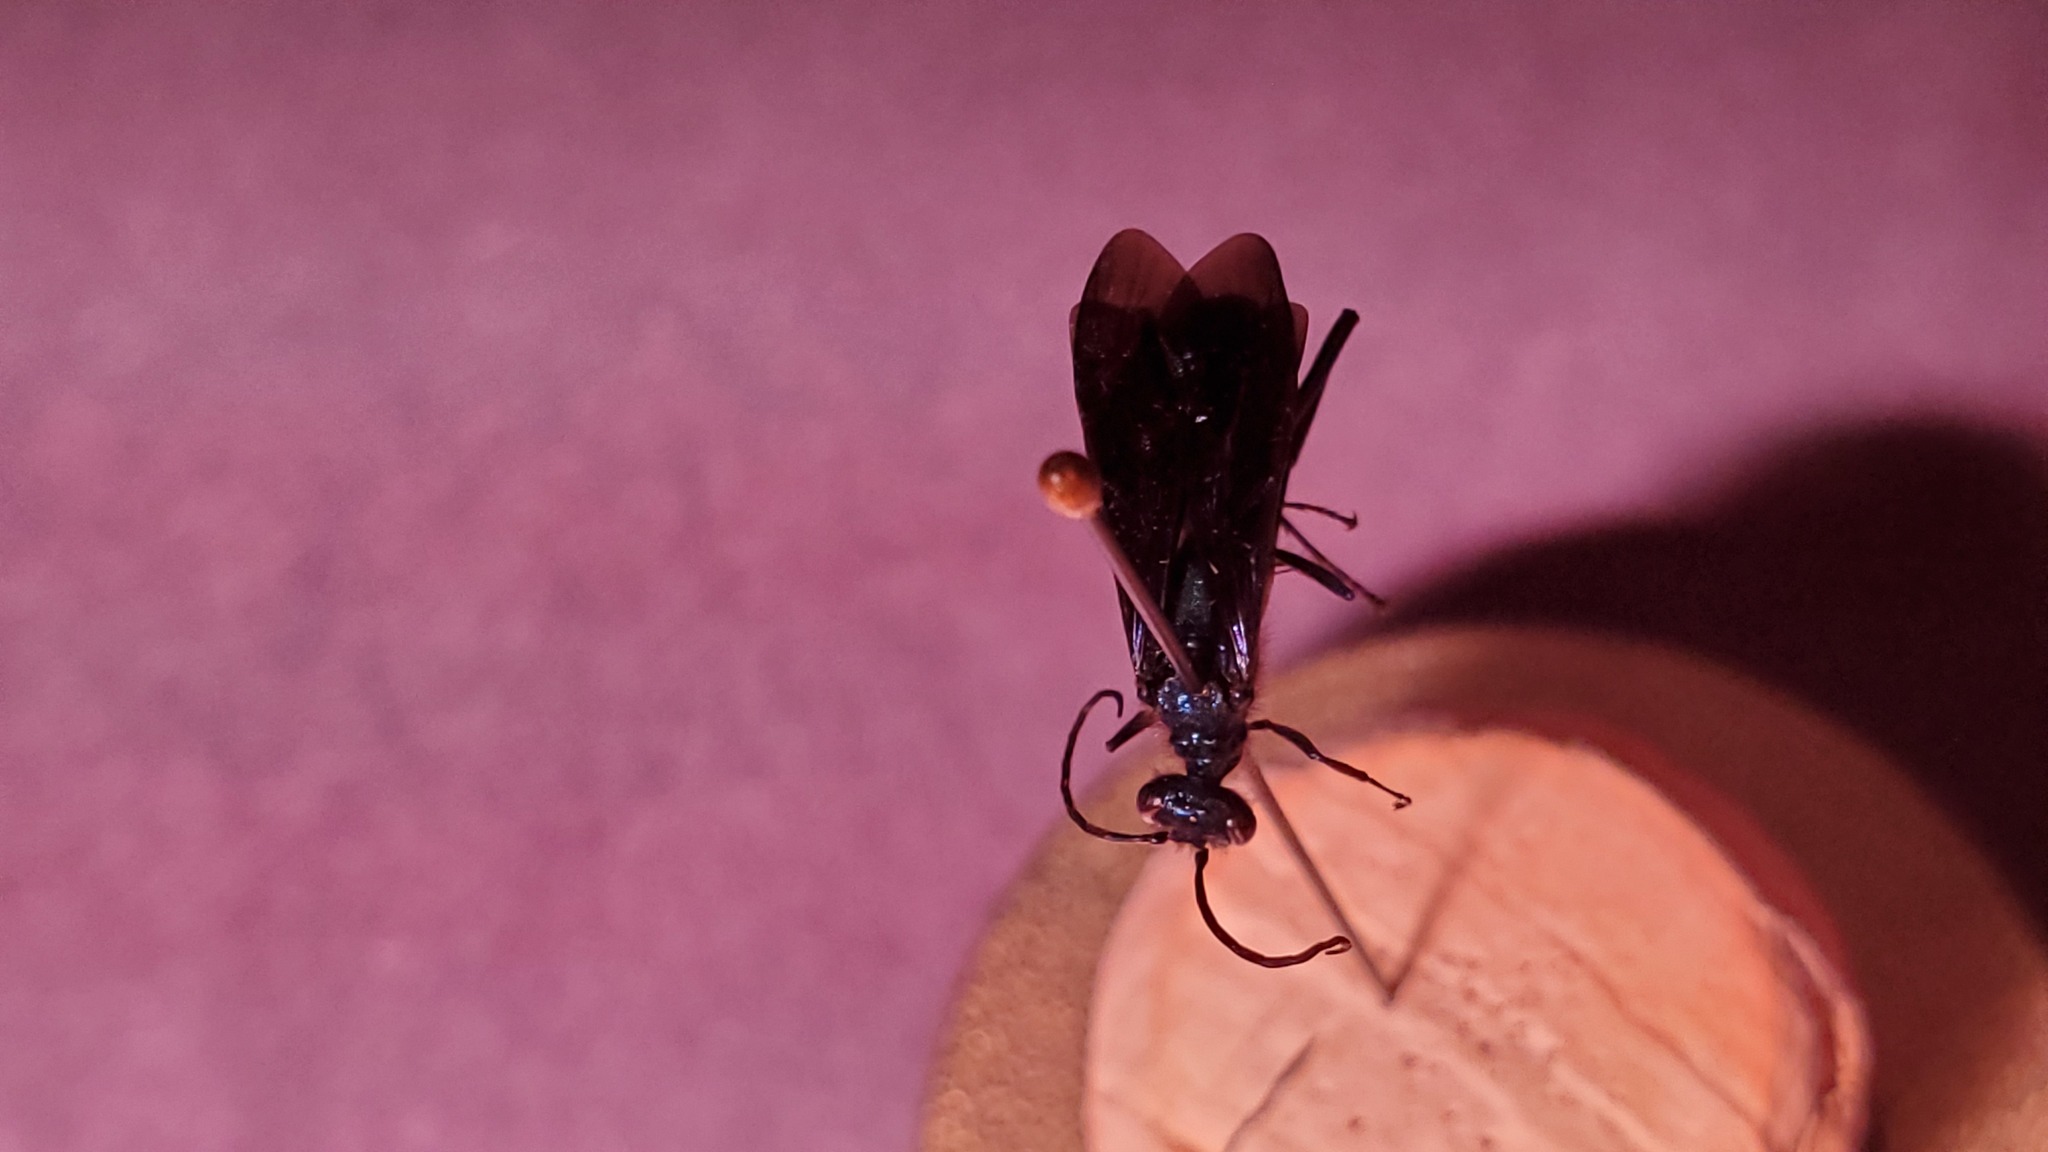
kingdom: Animalia
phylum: Arthropoda
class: Insecta
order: Hymenoptera
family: Sphecidae
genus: Chalybion
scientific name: Chalybion californicum
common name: Mud dauber
